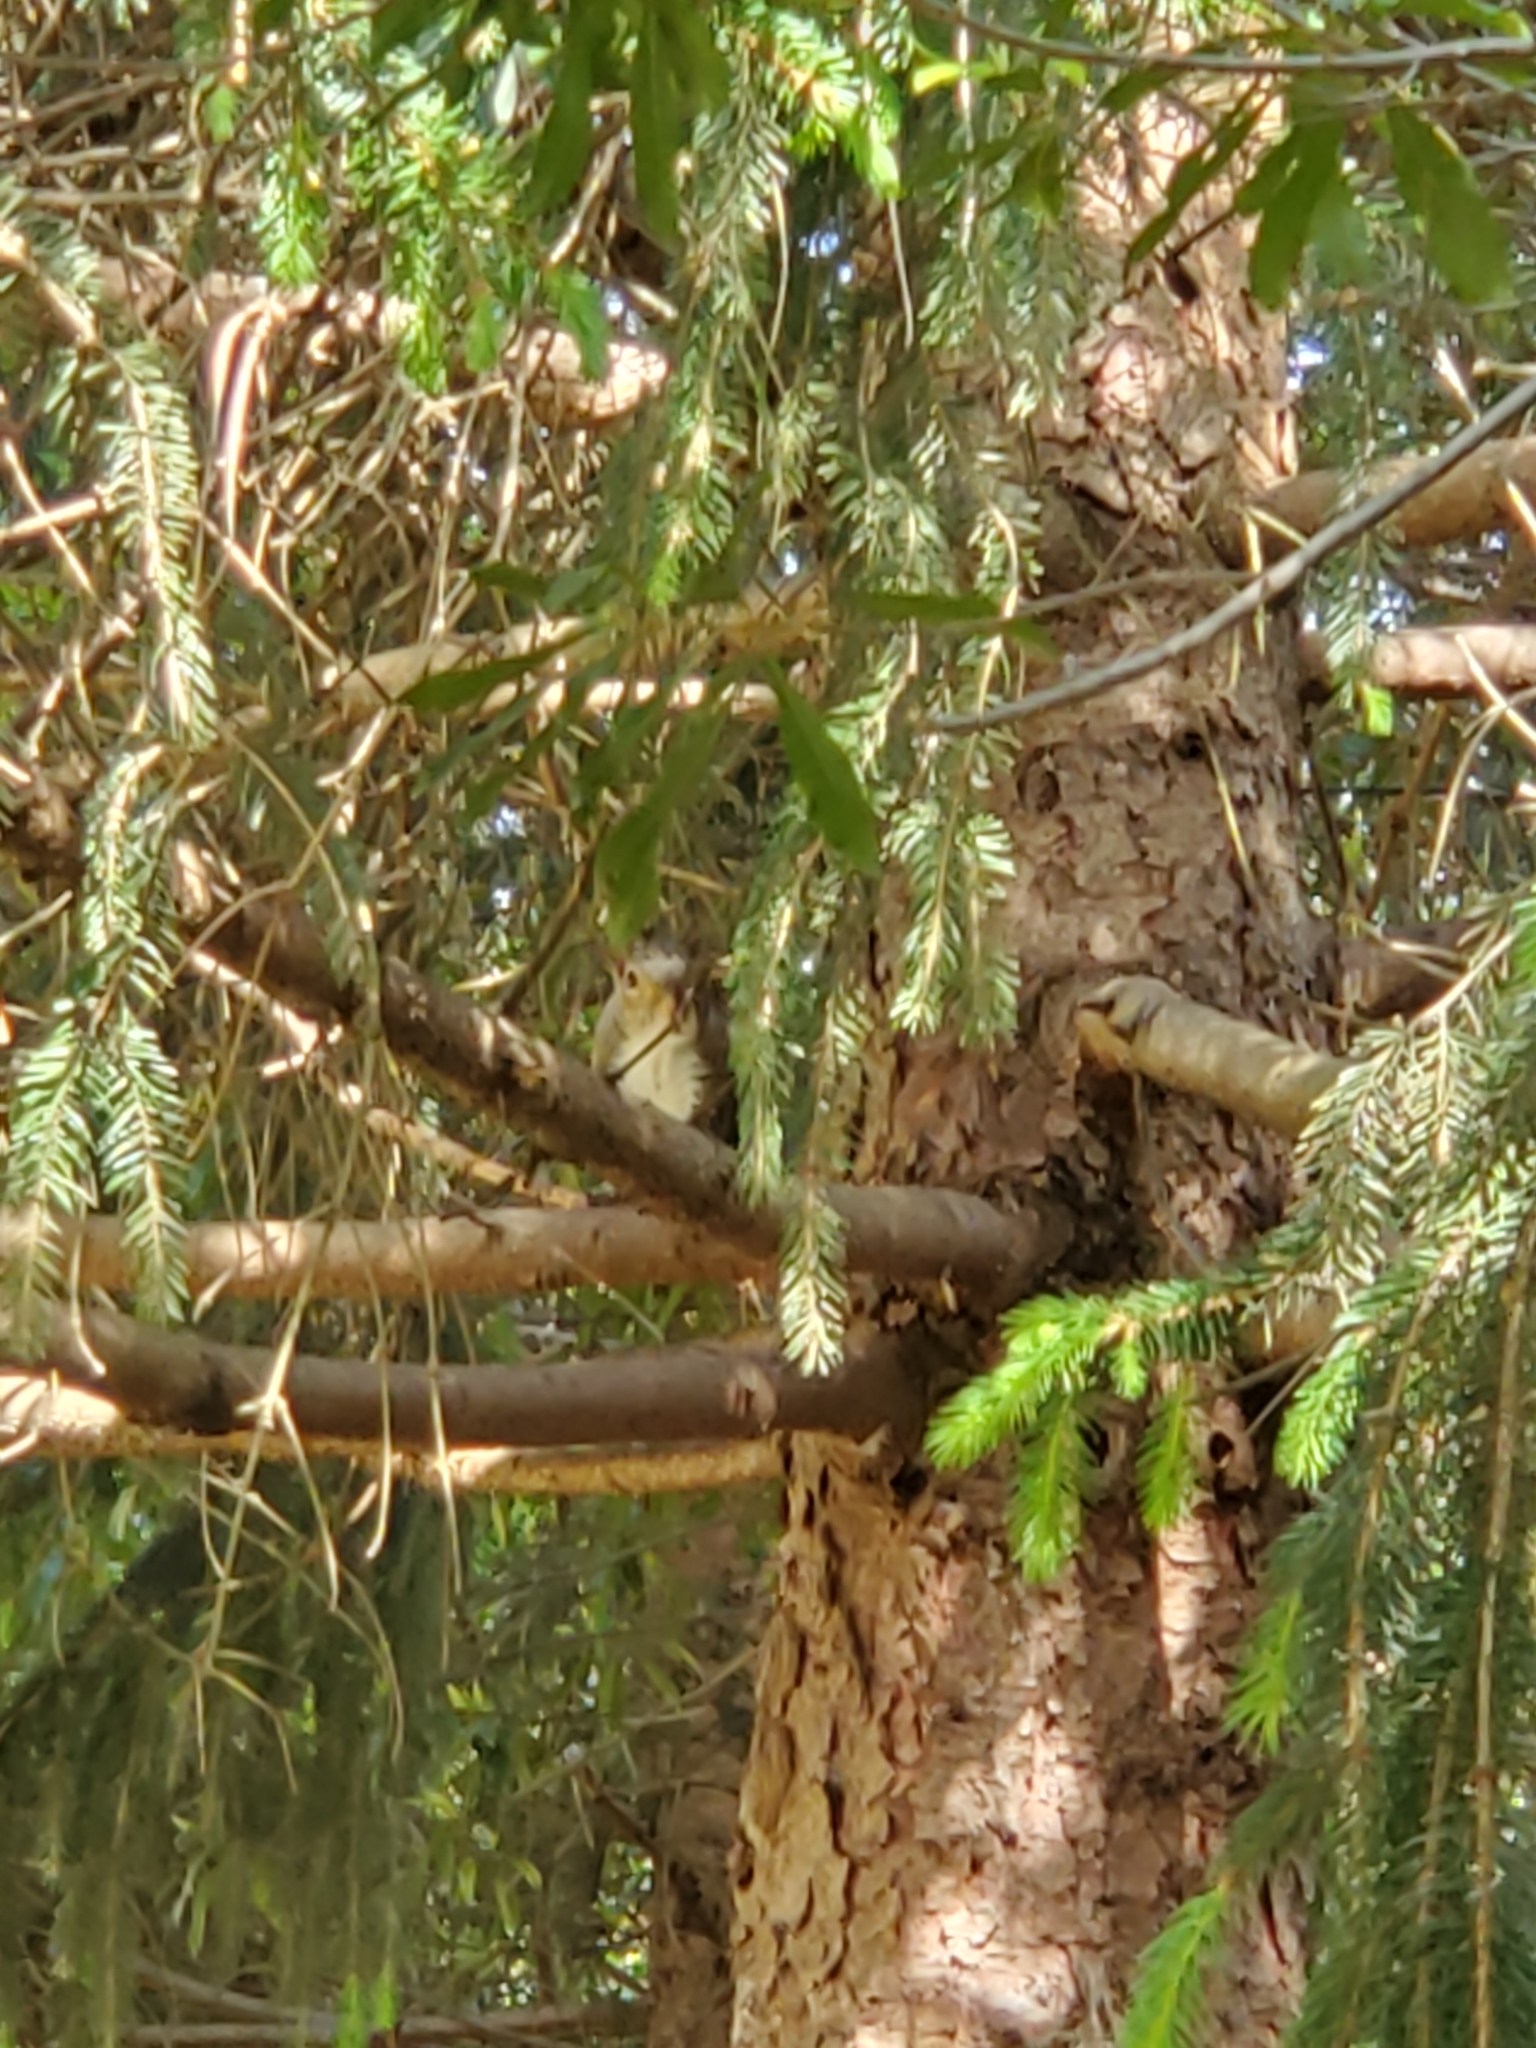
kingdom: Animalia
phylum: Chordata
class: Mammalia
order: Rodentia
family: Sciuridae
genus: Sciurus
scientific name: Sciurus carolinensis
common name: Eastern gray squirrel
